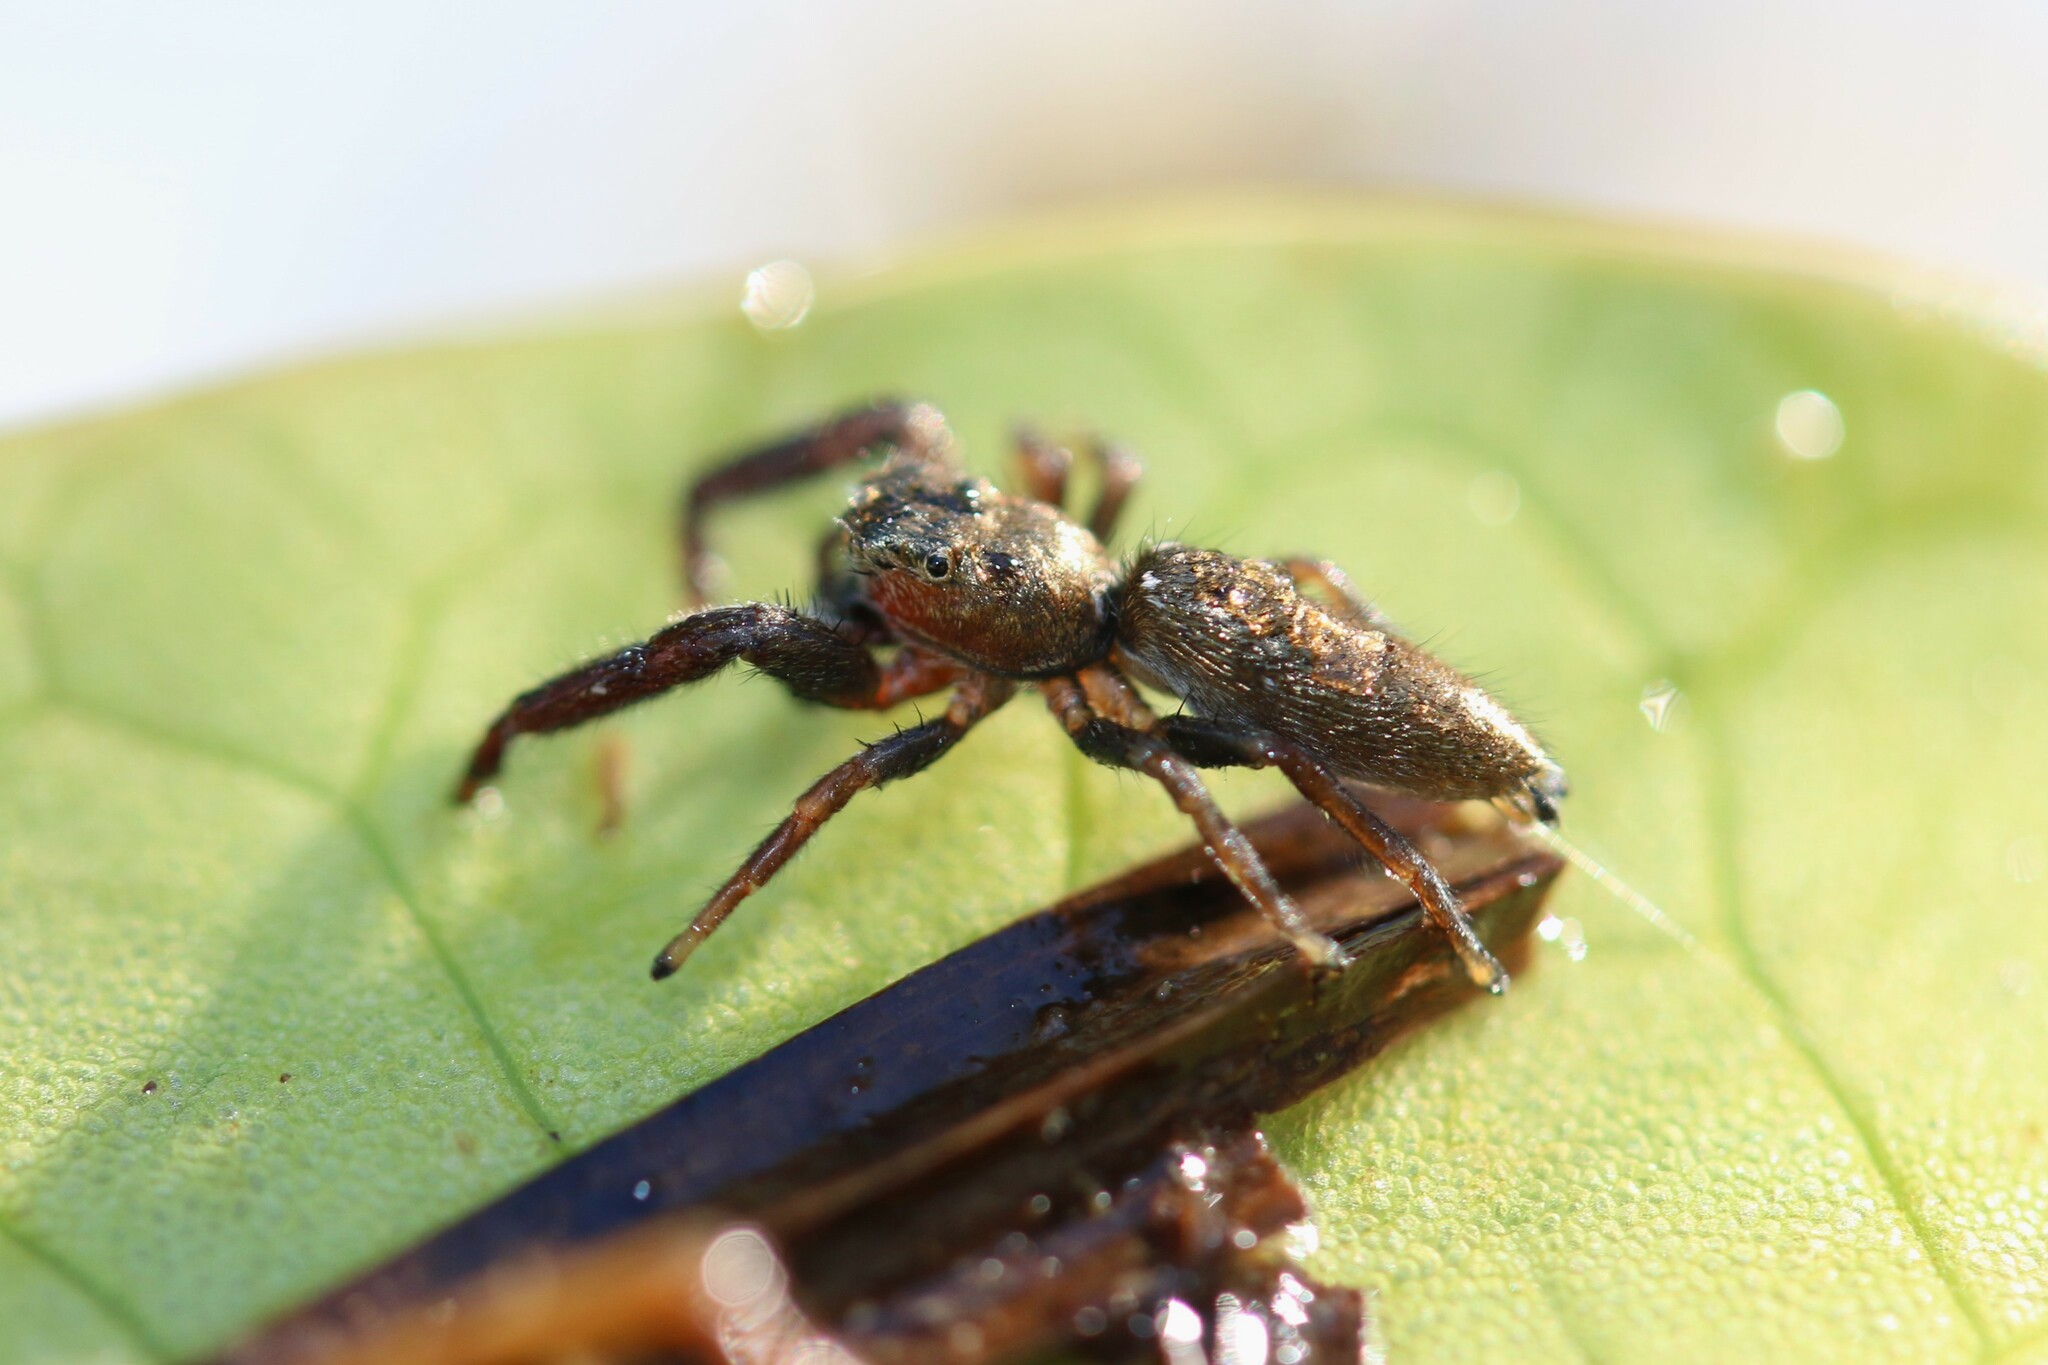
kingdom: Animalia
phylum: Arthropoda
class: Arachnida
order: Araneae
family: Salticidae
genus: Mendoza
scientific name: Mendoza canestrinii
